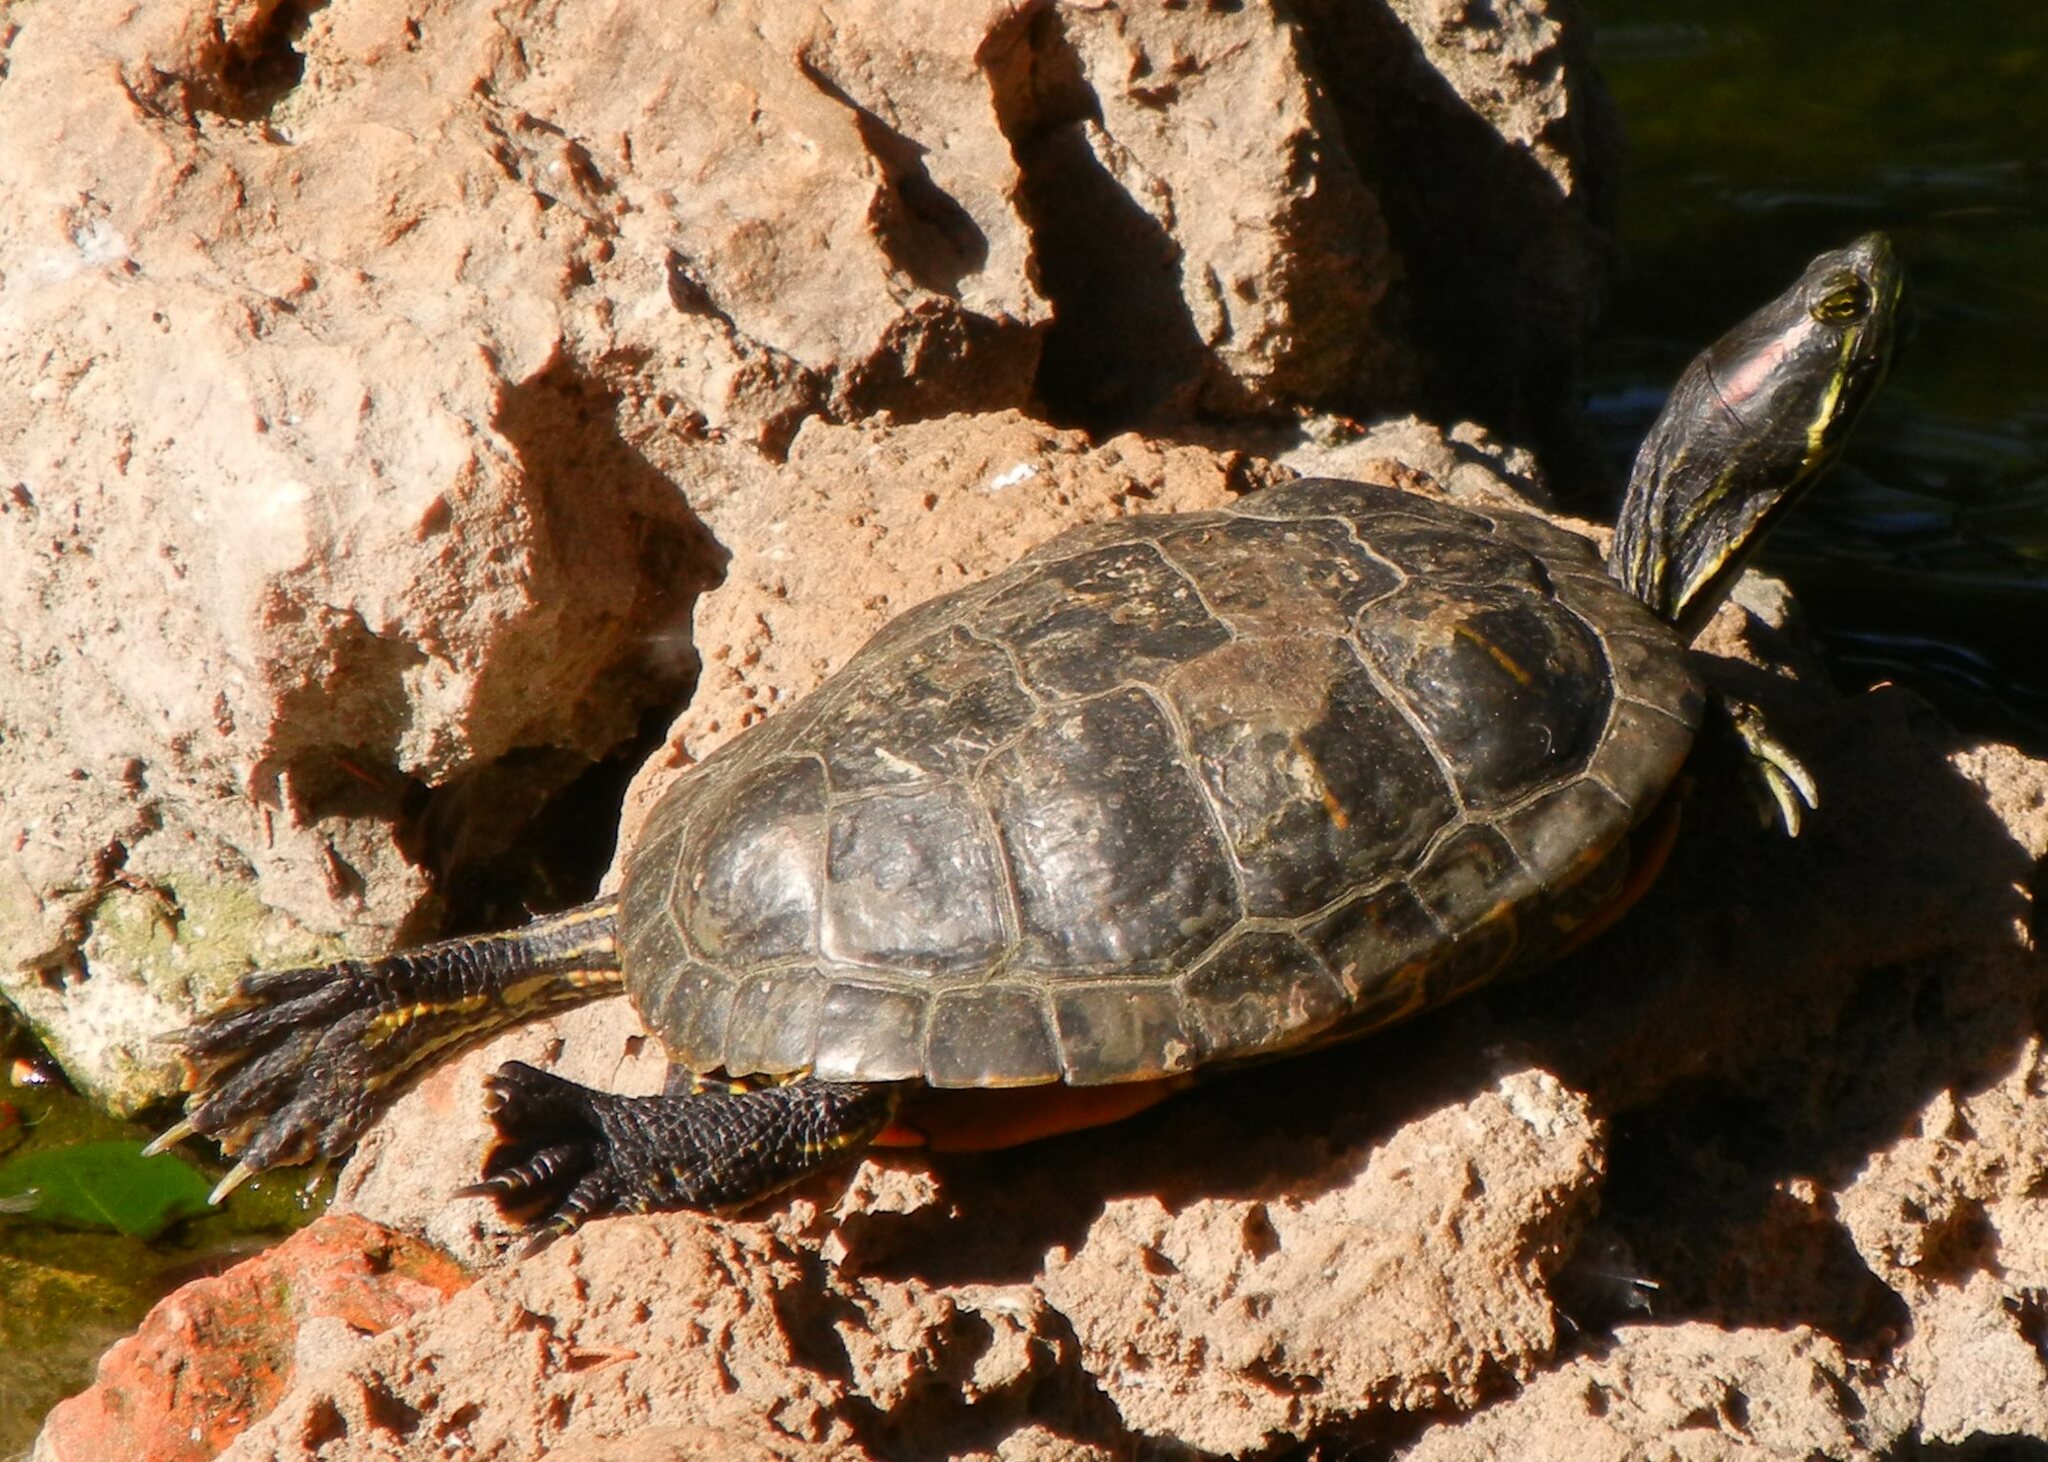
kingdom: Animalia
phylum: Chordata
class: Testudines
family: Emydidae
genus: Trachemys
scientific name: Trachemys scripta
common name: Slider
